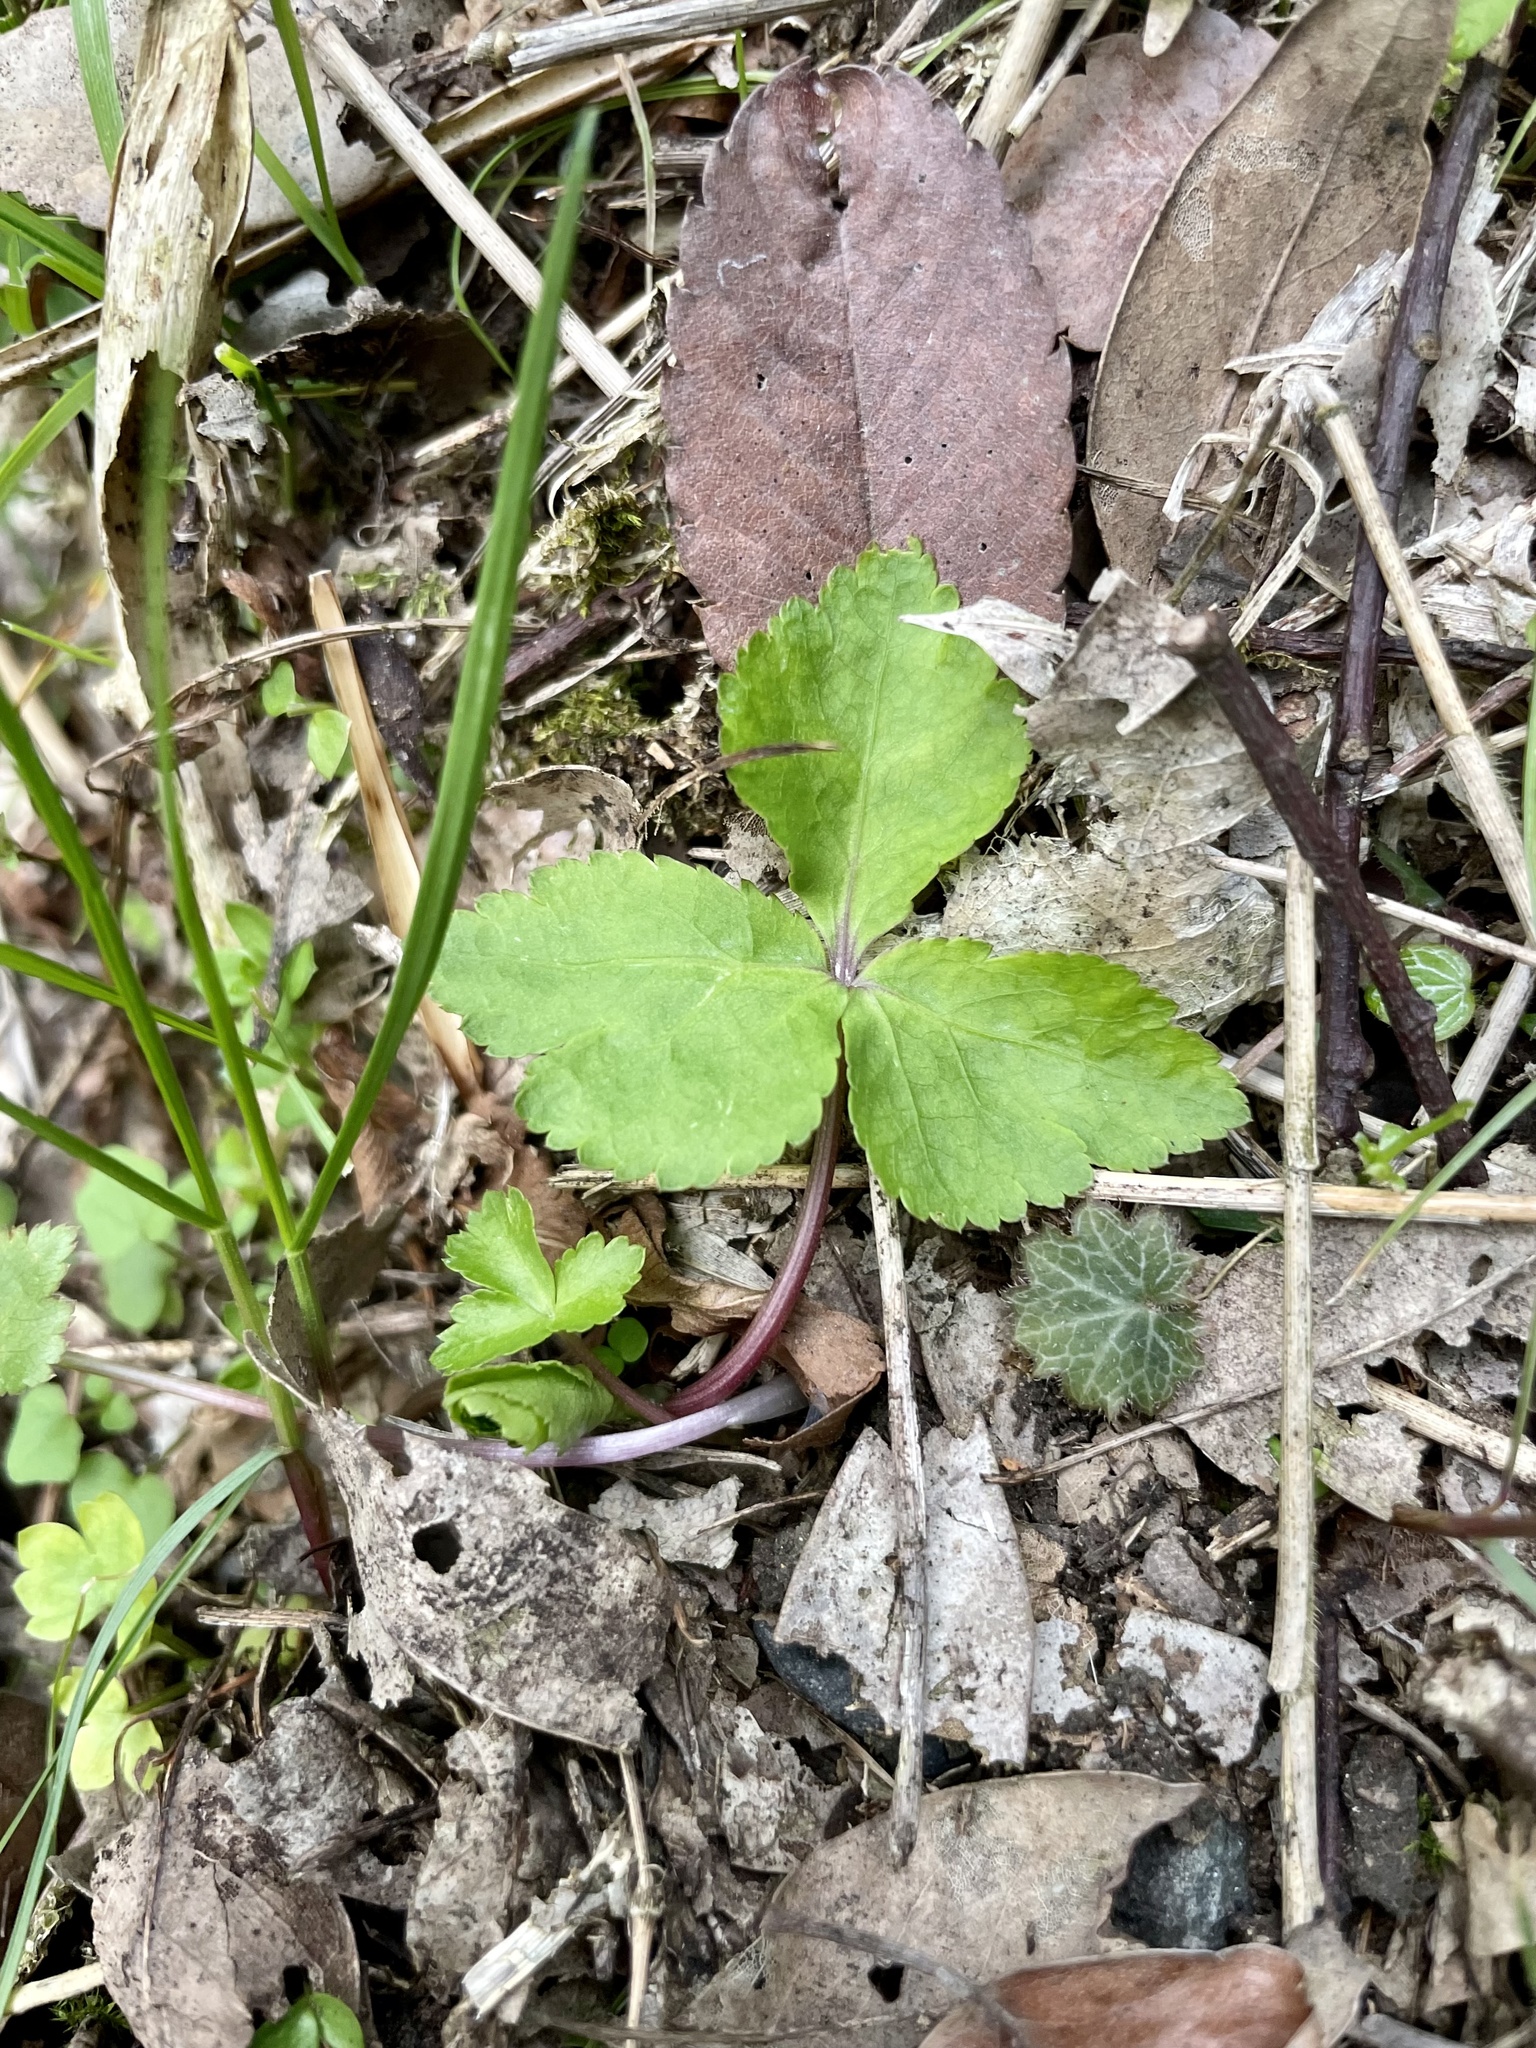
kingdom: Plantae
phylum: Tracheophyta
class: Magnoliopsida
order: Apiales
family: Apiaceae
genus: Cryptotaenia
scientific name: Cryptotaenia japonica
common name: Japanese cryptotaenia
